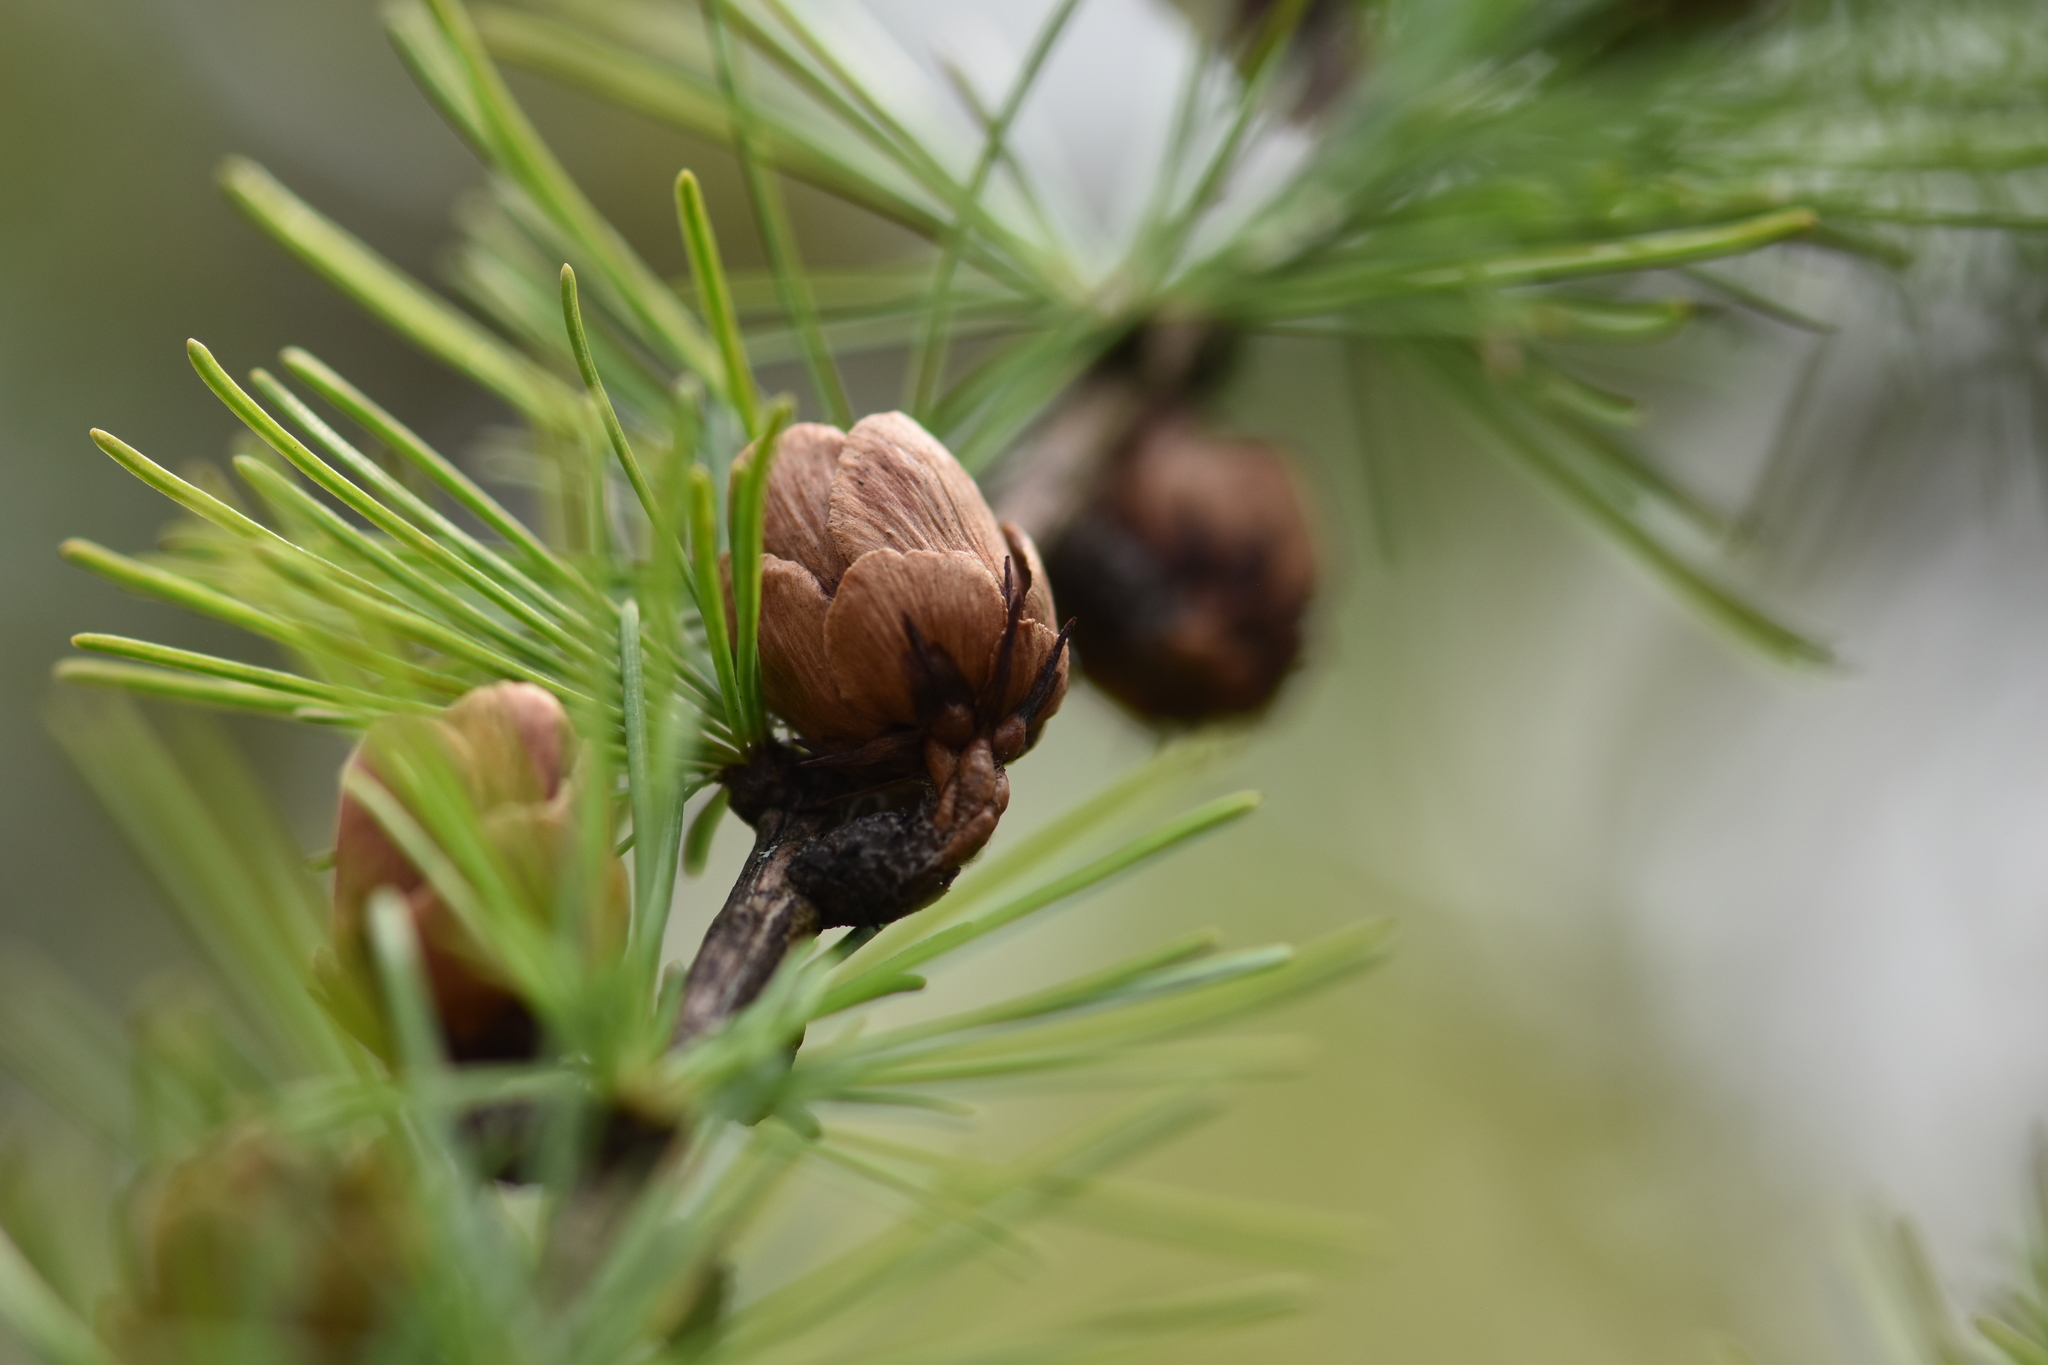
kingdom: Plantae
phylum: Tracheophyta
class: Pinopsida
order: Pinales
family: Pinaceae
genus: Larix
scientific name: Larix laricina
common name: American larch
